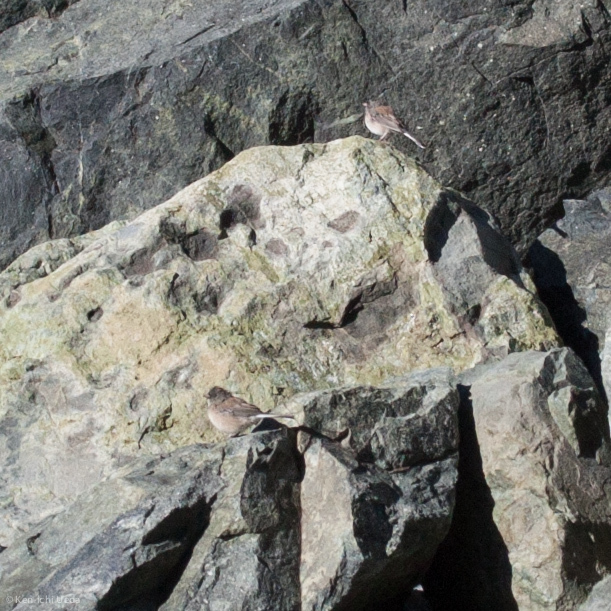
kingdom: Animalia
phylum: Chordata
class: Aves
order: Passeriformes
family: Passerellidae
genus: Junco
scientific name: Junco hyemalis
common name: Dark-eyed junco
